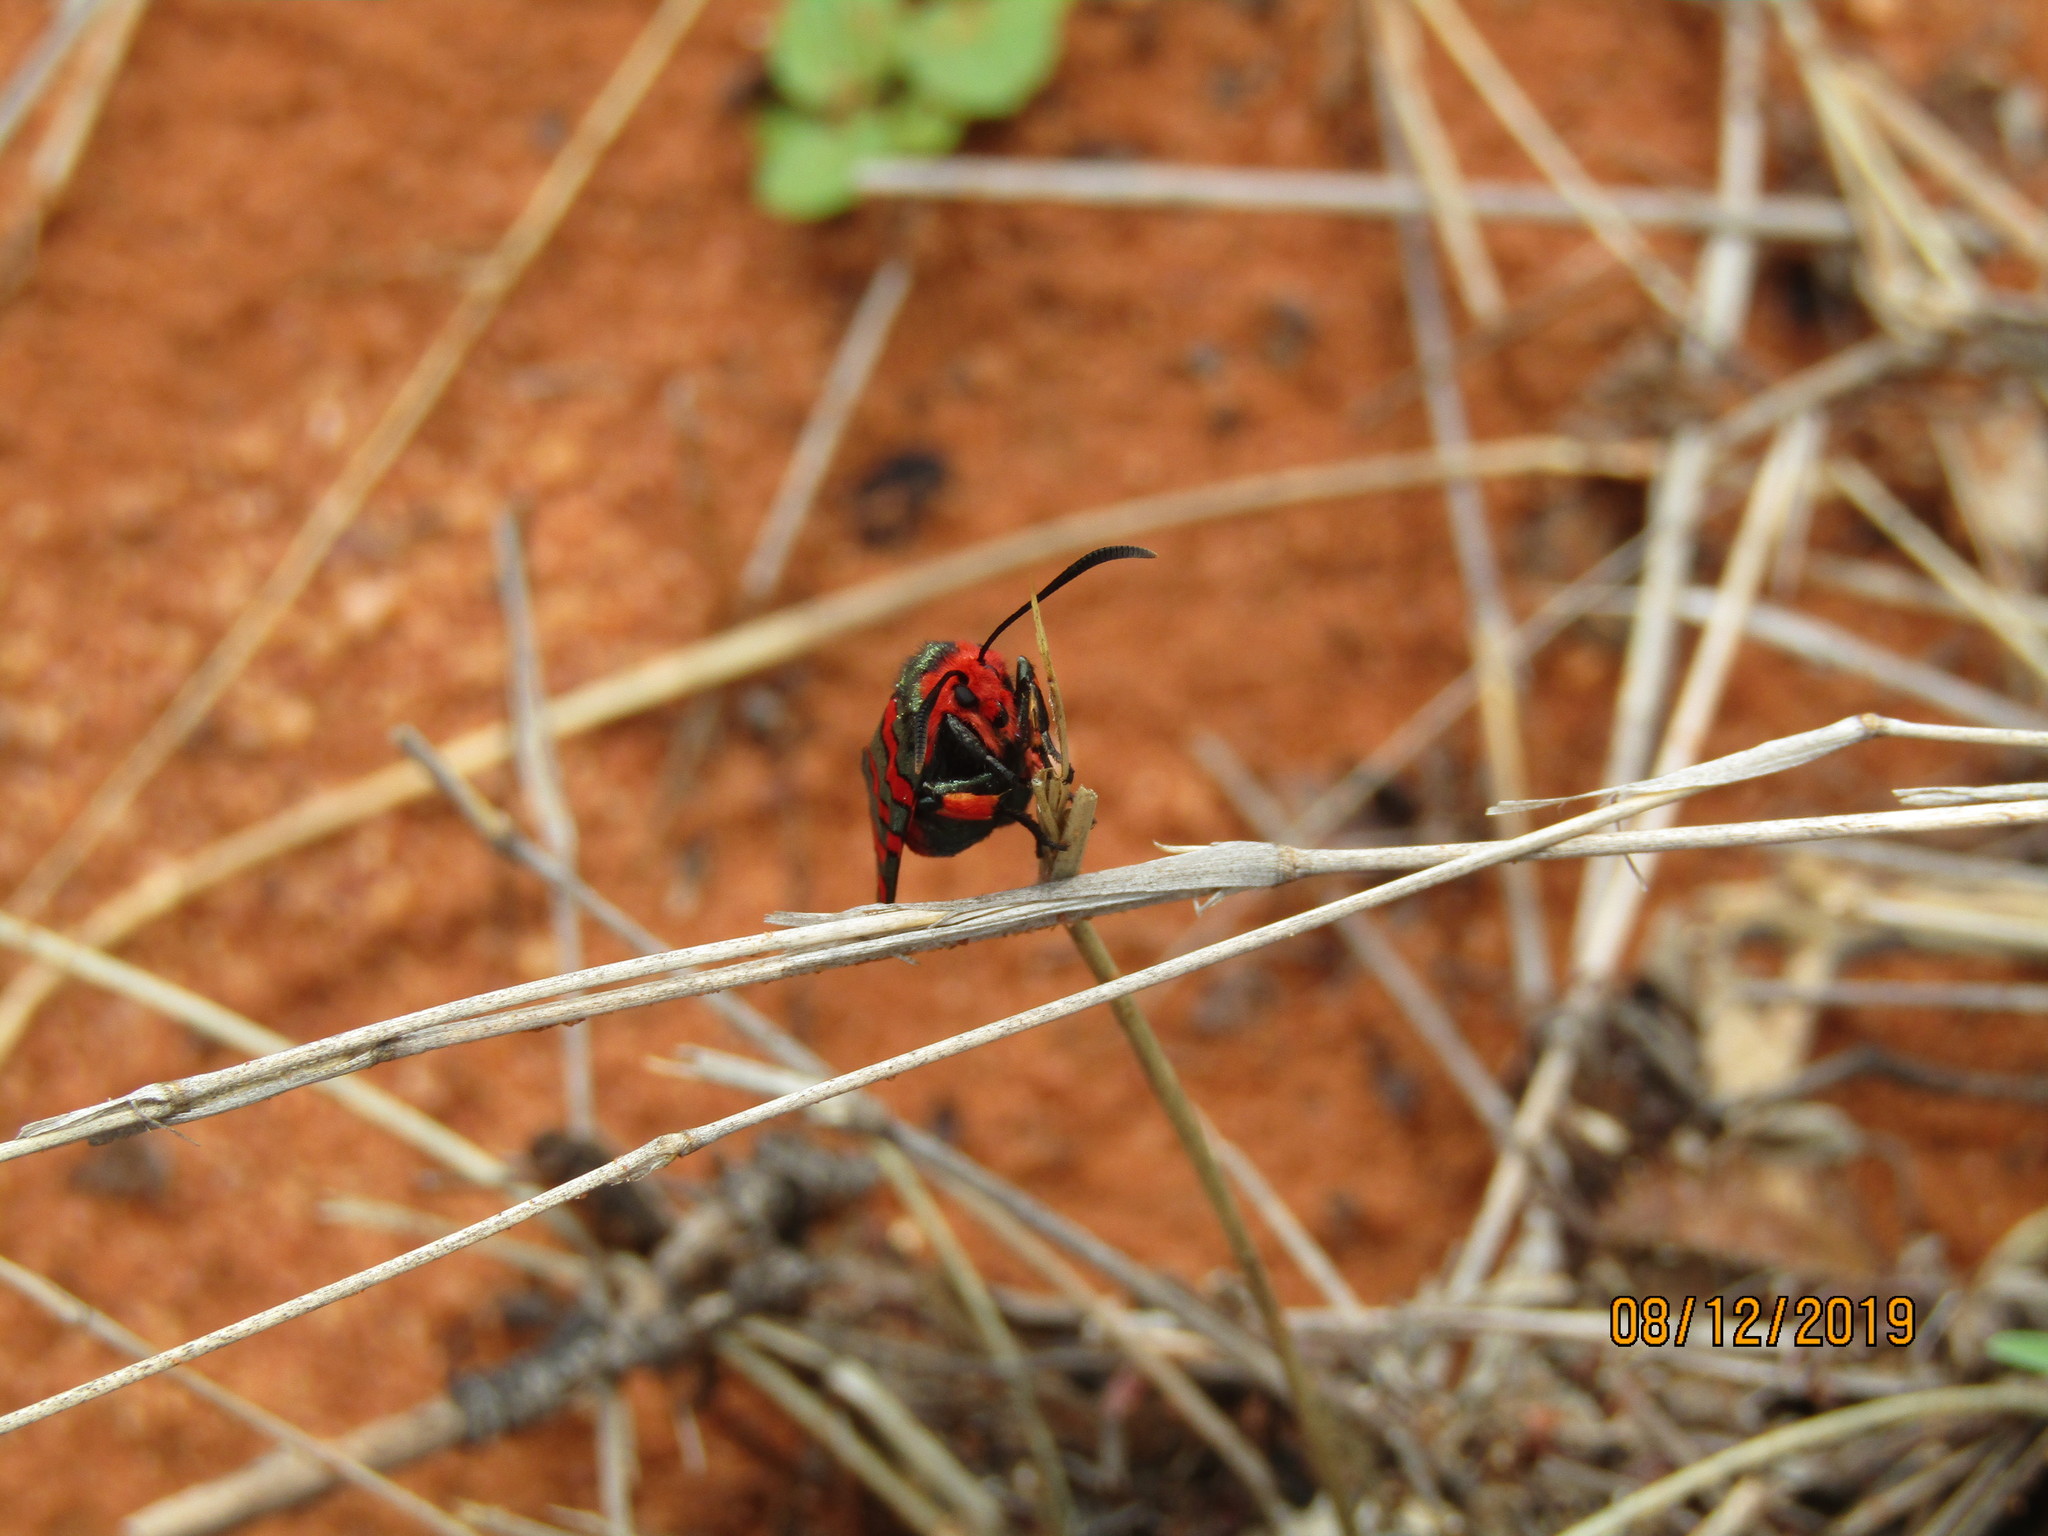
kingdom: Animalia
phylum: Arthropoda
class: Insecta
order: Lepidoptera
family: Thyrididae
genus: Arniocera
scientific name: Arniocera erythropyga
